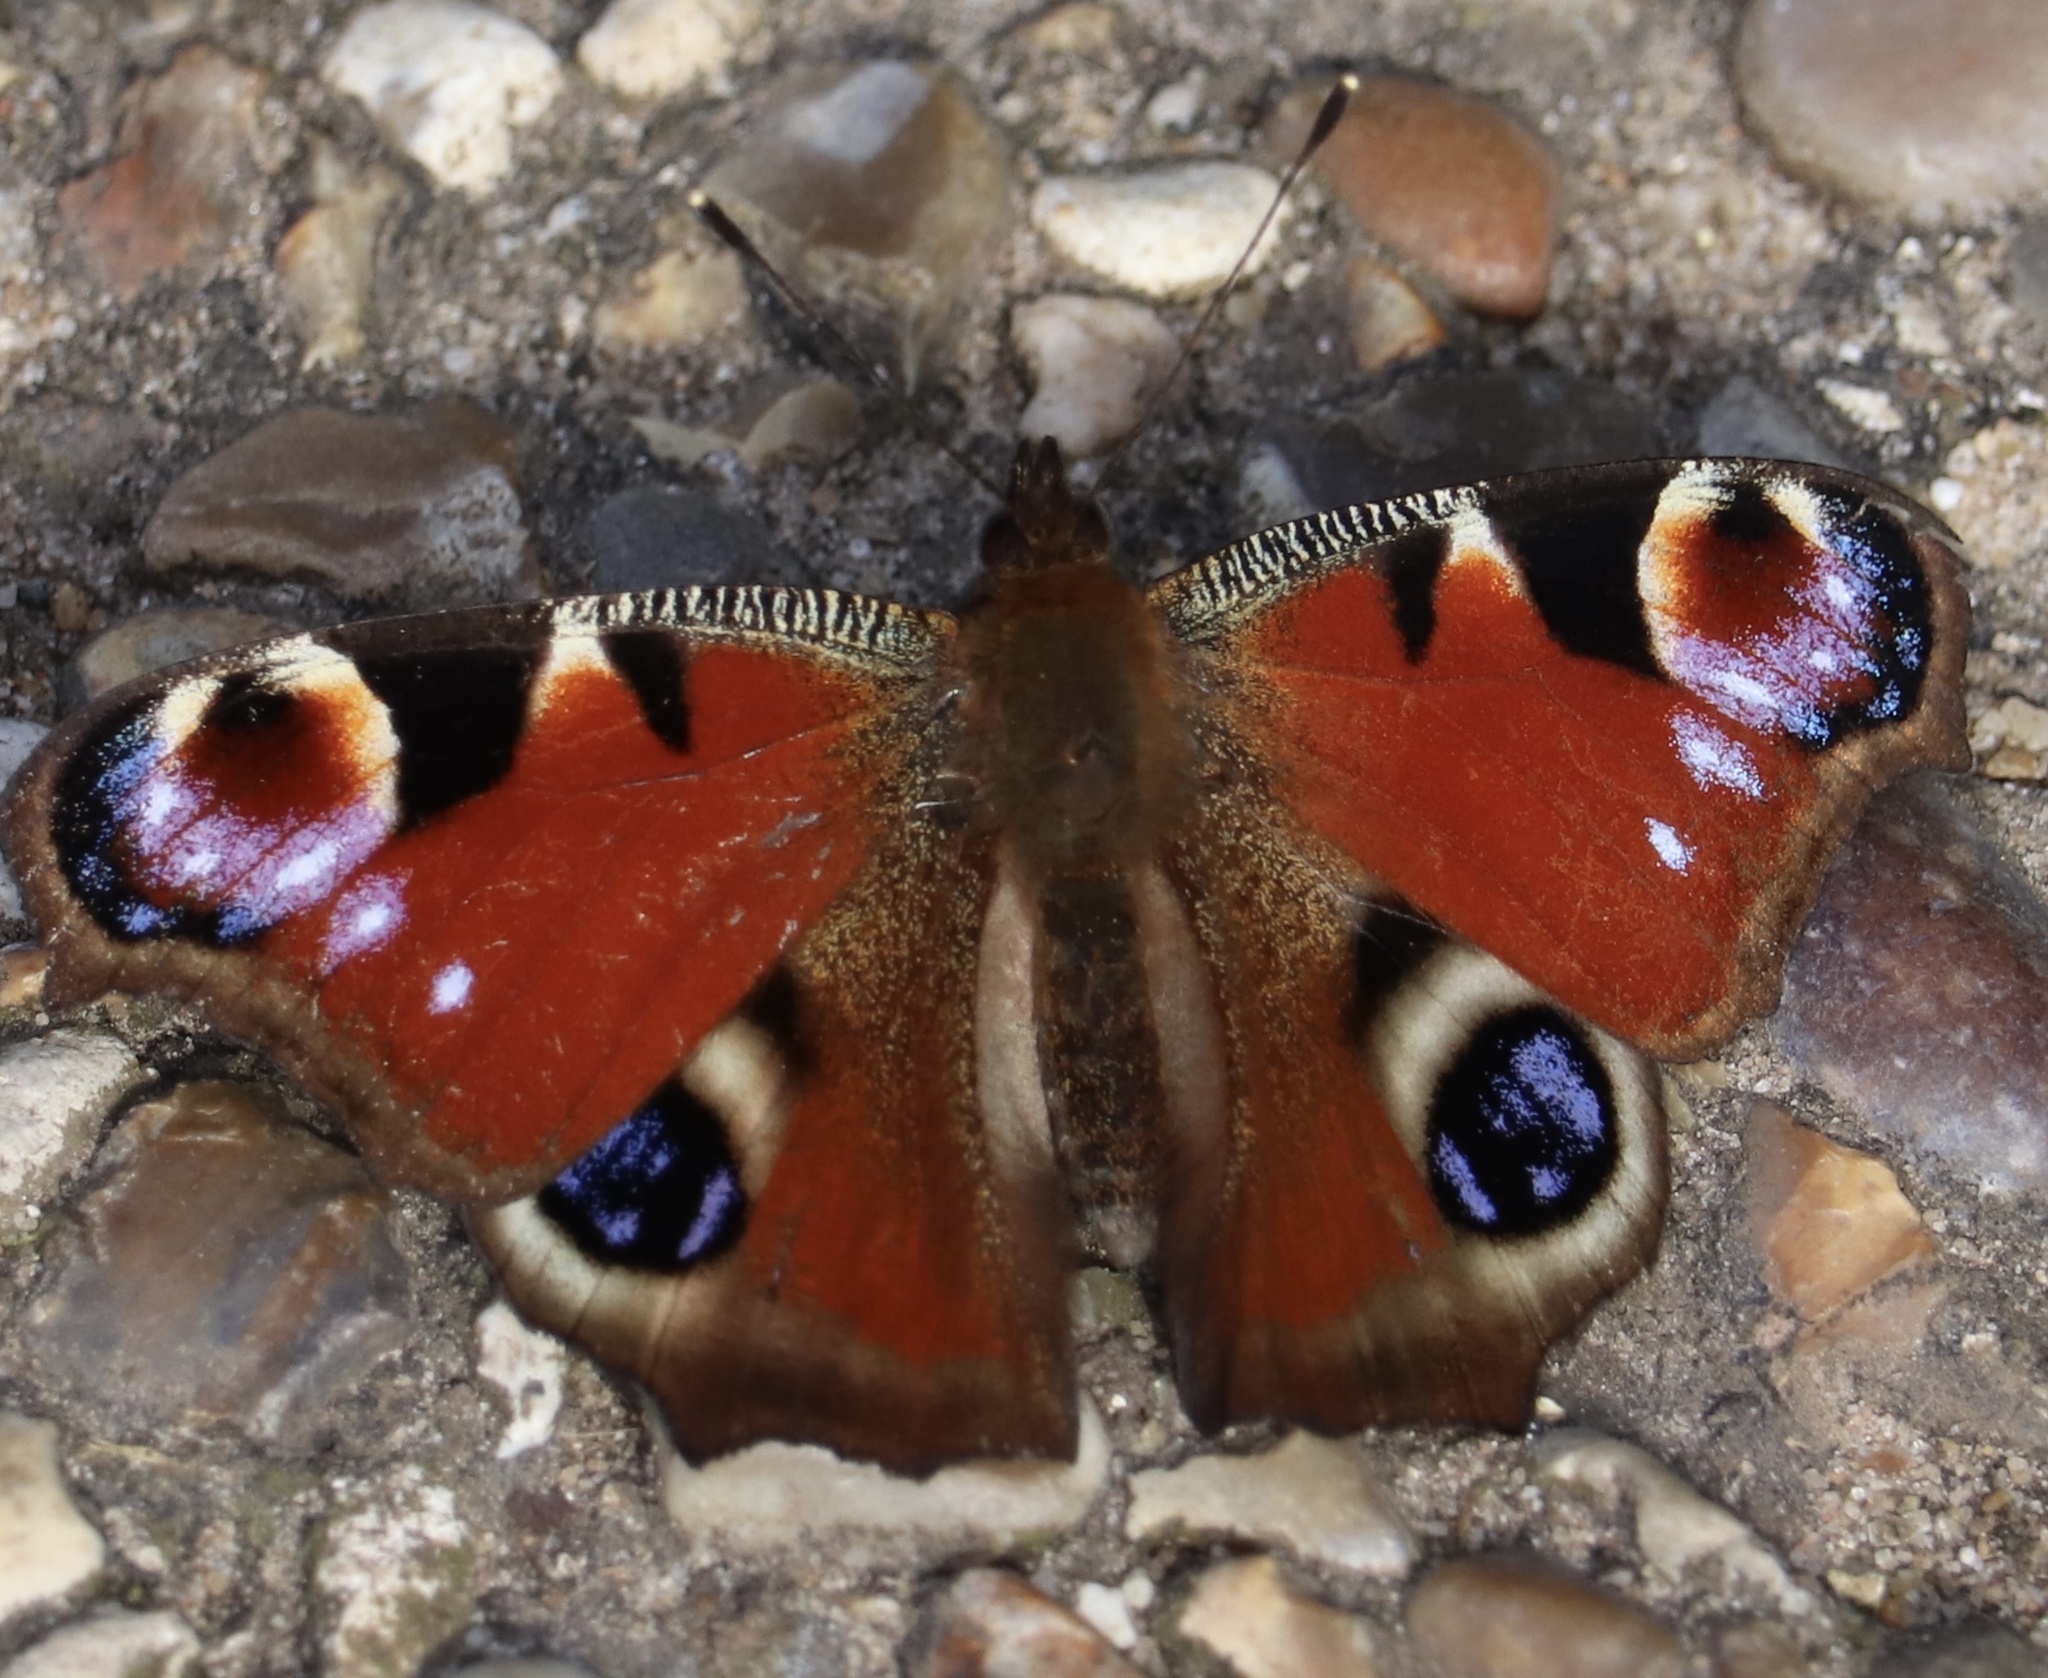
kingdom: Animalia
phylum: Arthropoda
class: Insecta
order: Lepidoptera
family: Nymphalidae
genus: Aglais
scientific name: Aglais io
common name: Peacock
